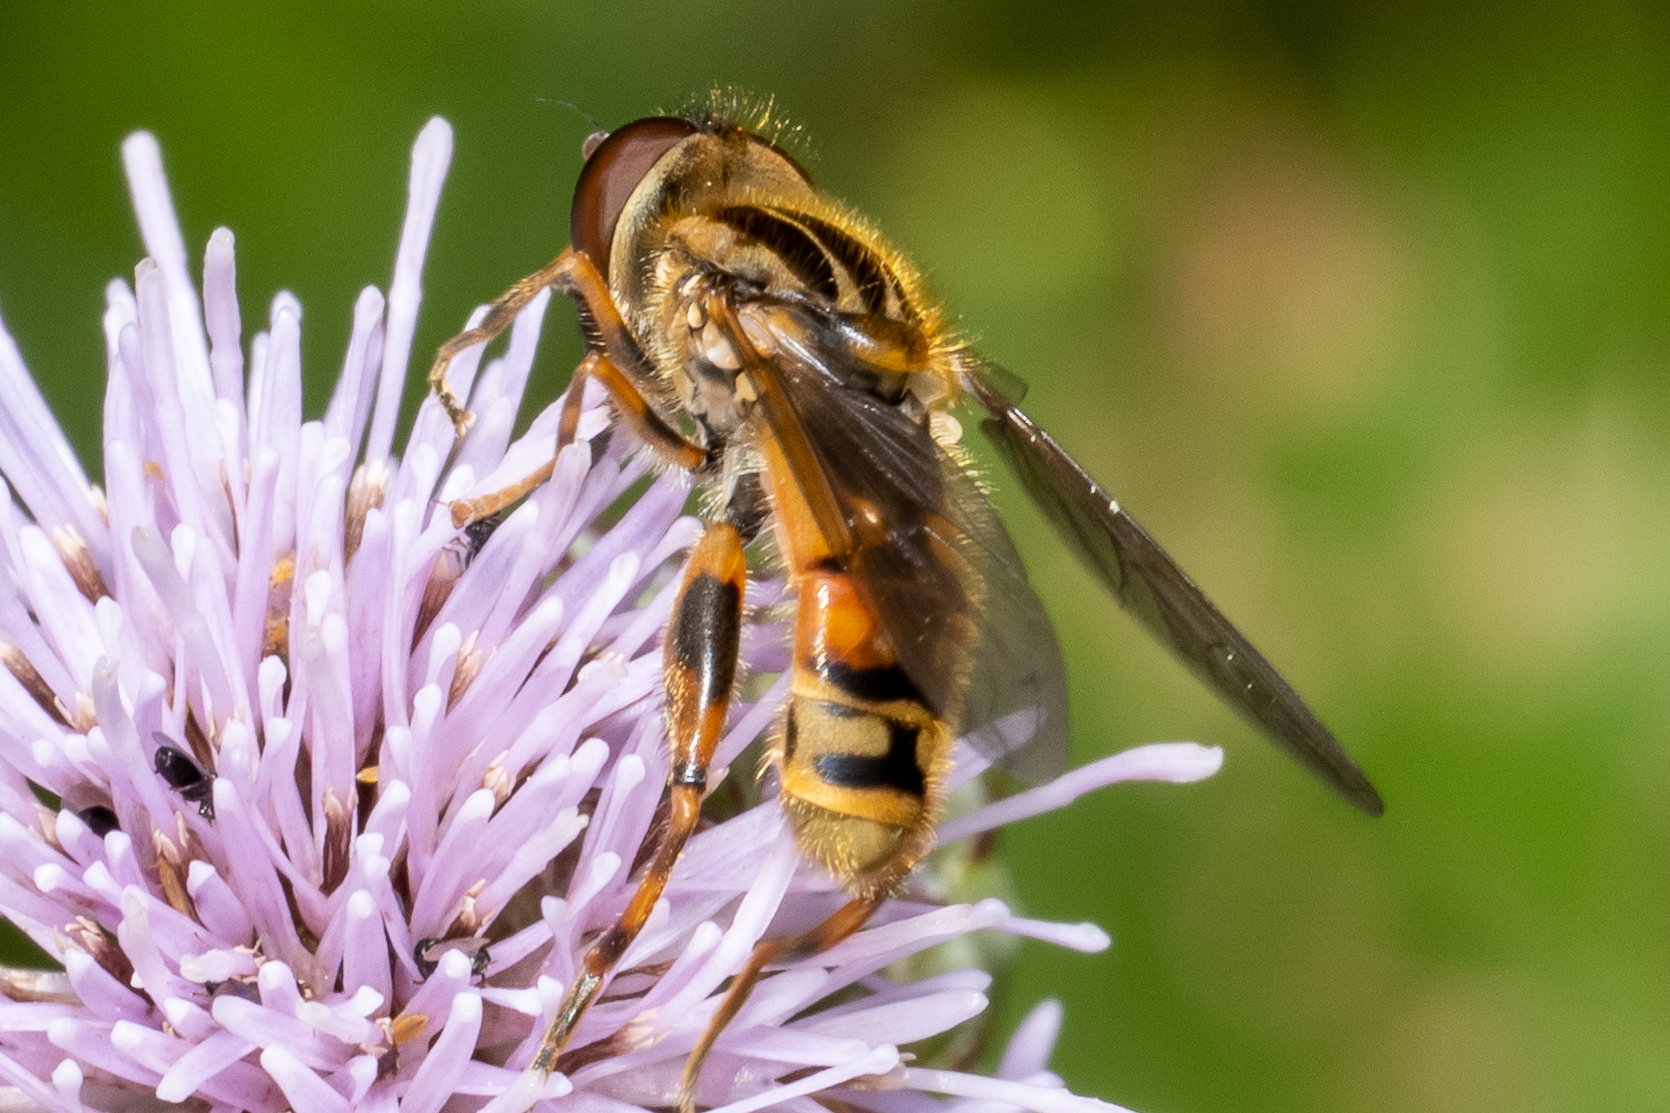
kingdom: Animalia
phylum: Arthropoda
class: Insecta
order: Diptera
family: Syrphidae
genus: Eurimyia
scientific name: Eurimyia stipatus
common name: Long-nosed swamp fly
